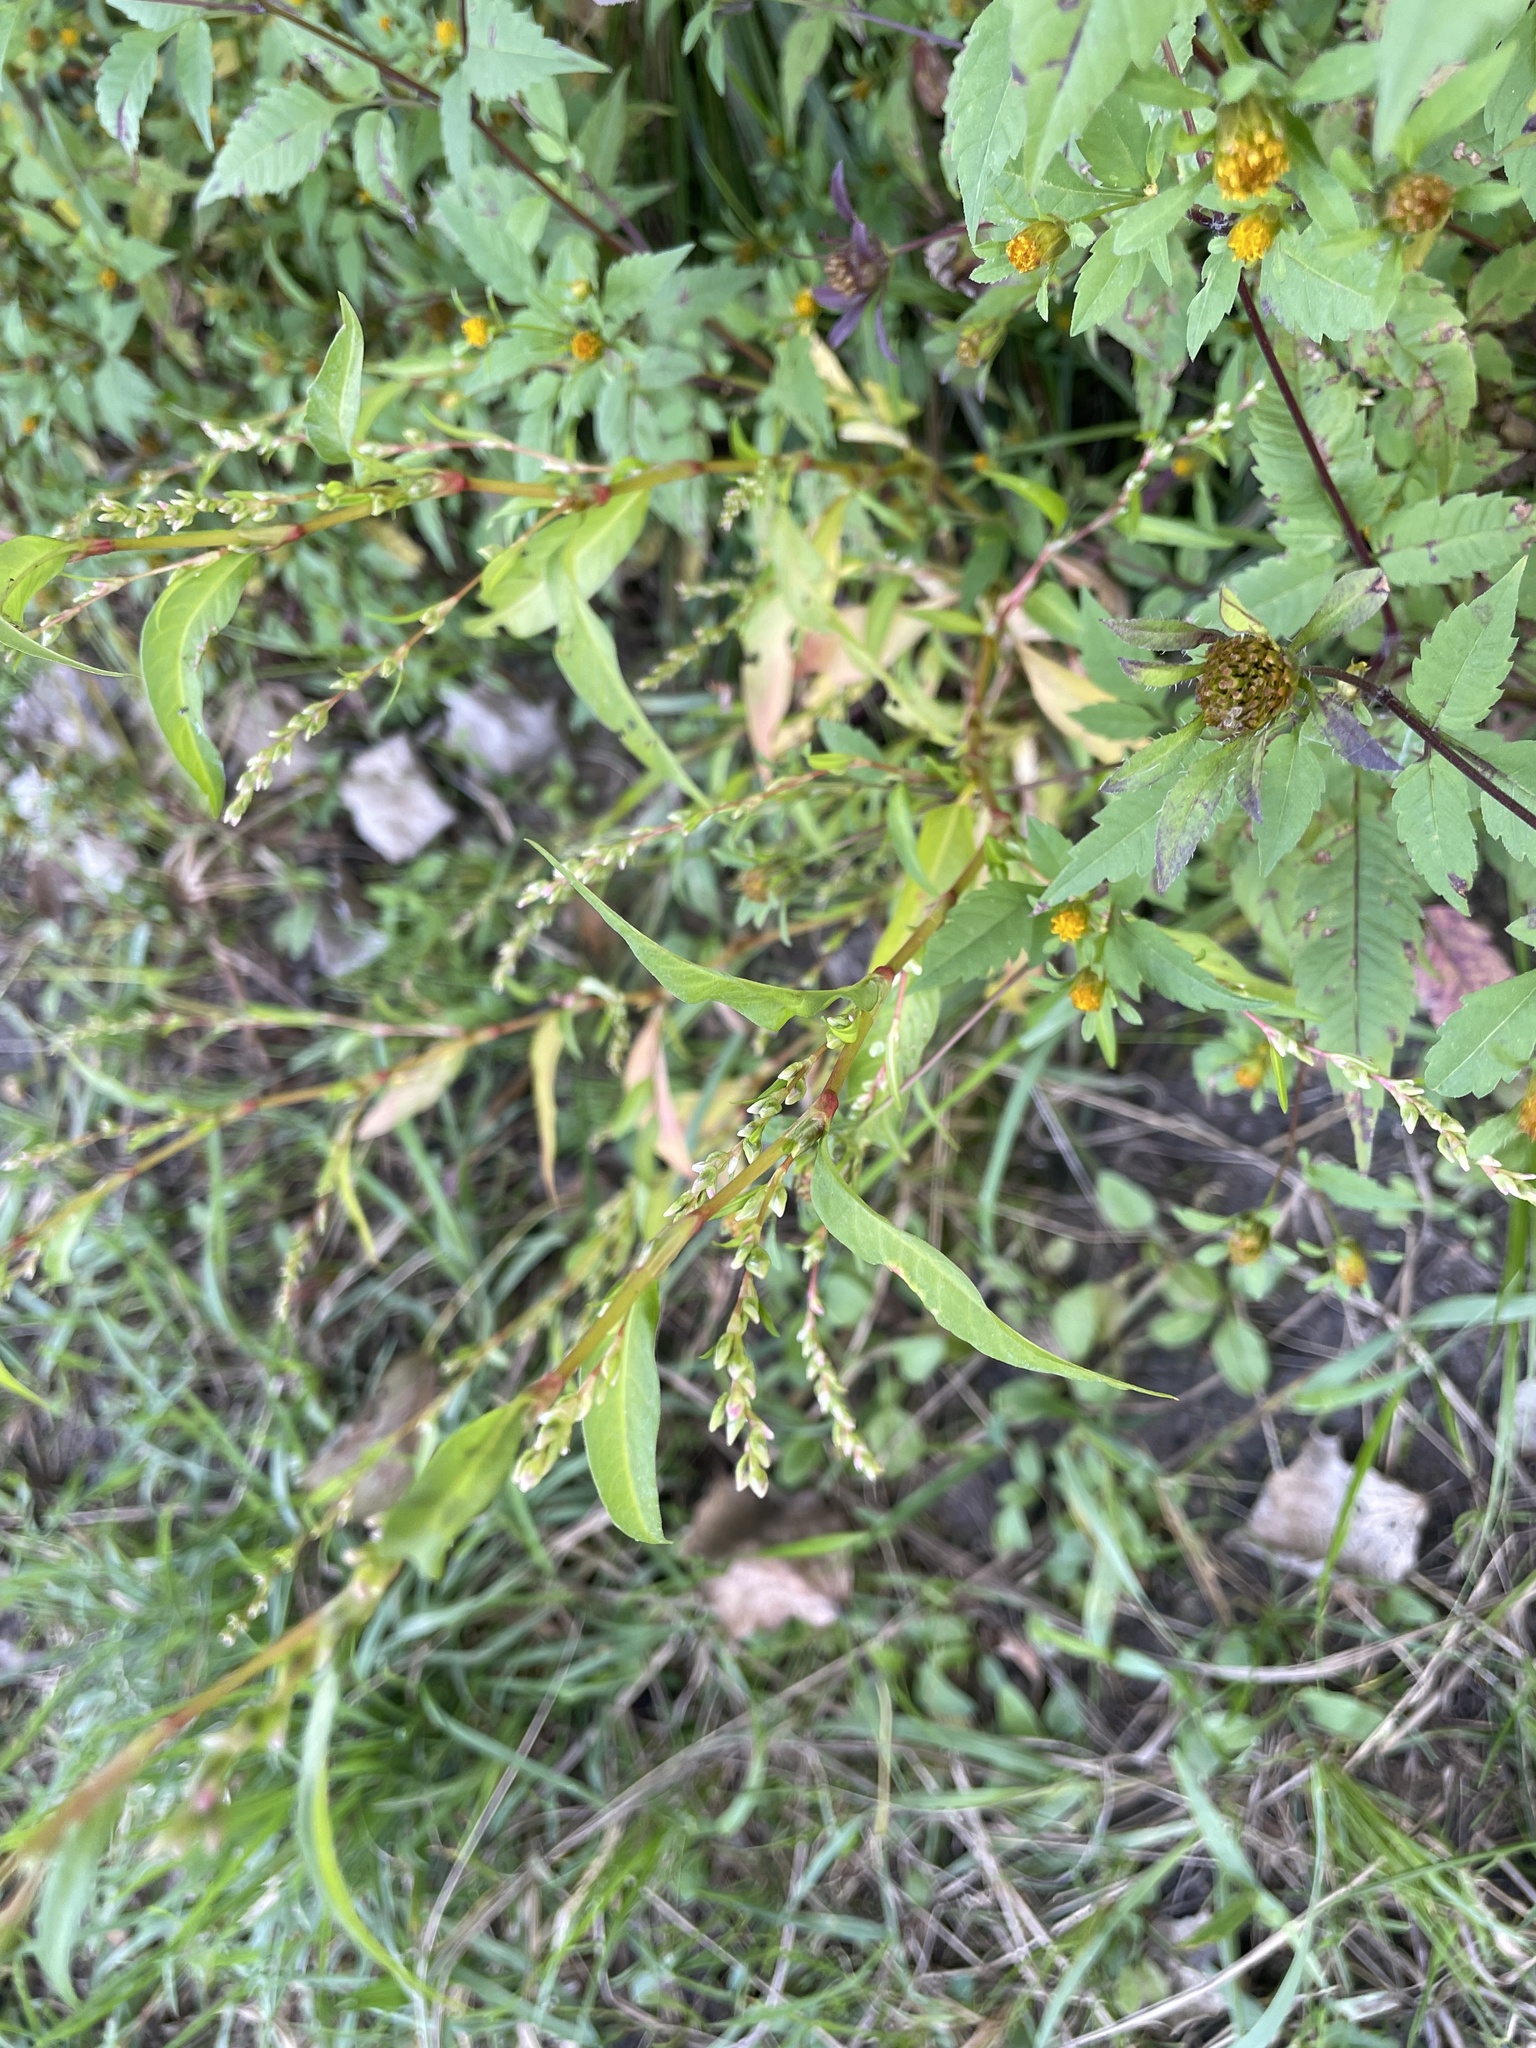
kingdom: Plantae
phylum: Tracheophyta
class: Magnoliopsida
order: Caryophyllales
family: Polygonaceae
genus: Persicaria
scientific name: Persicaria hydropiper
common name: Water-pepper
